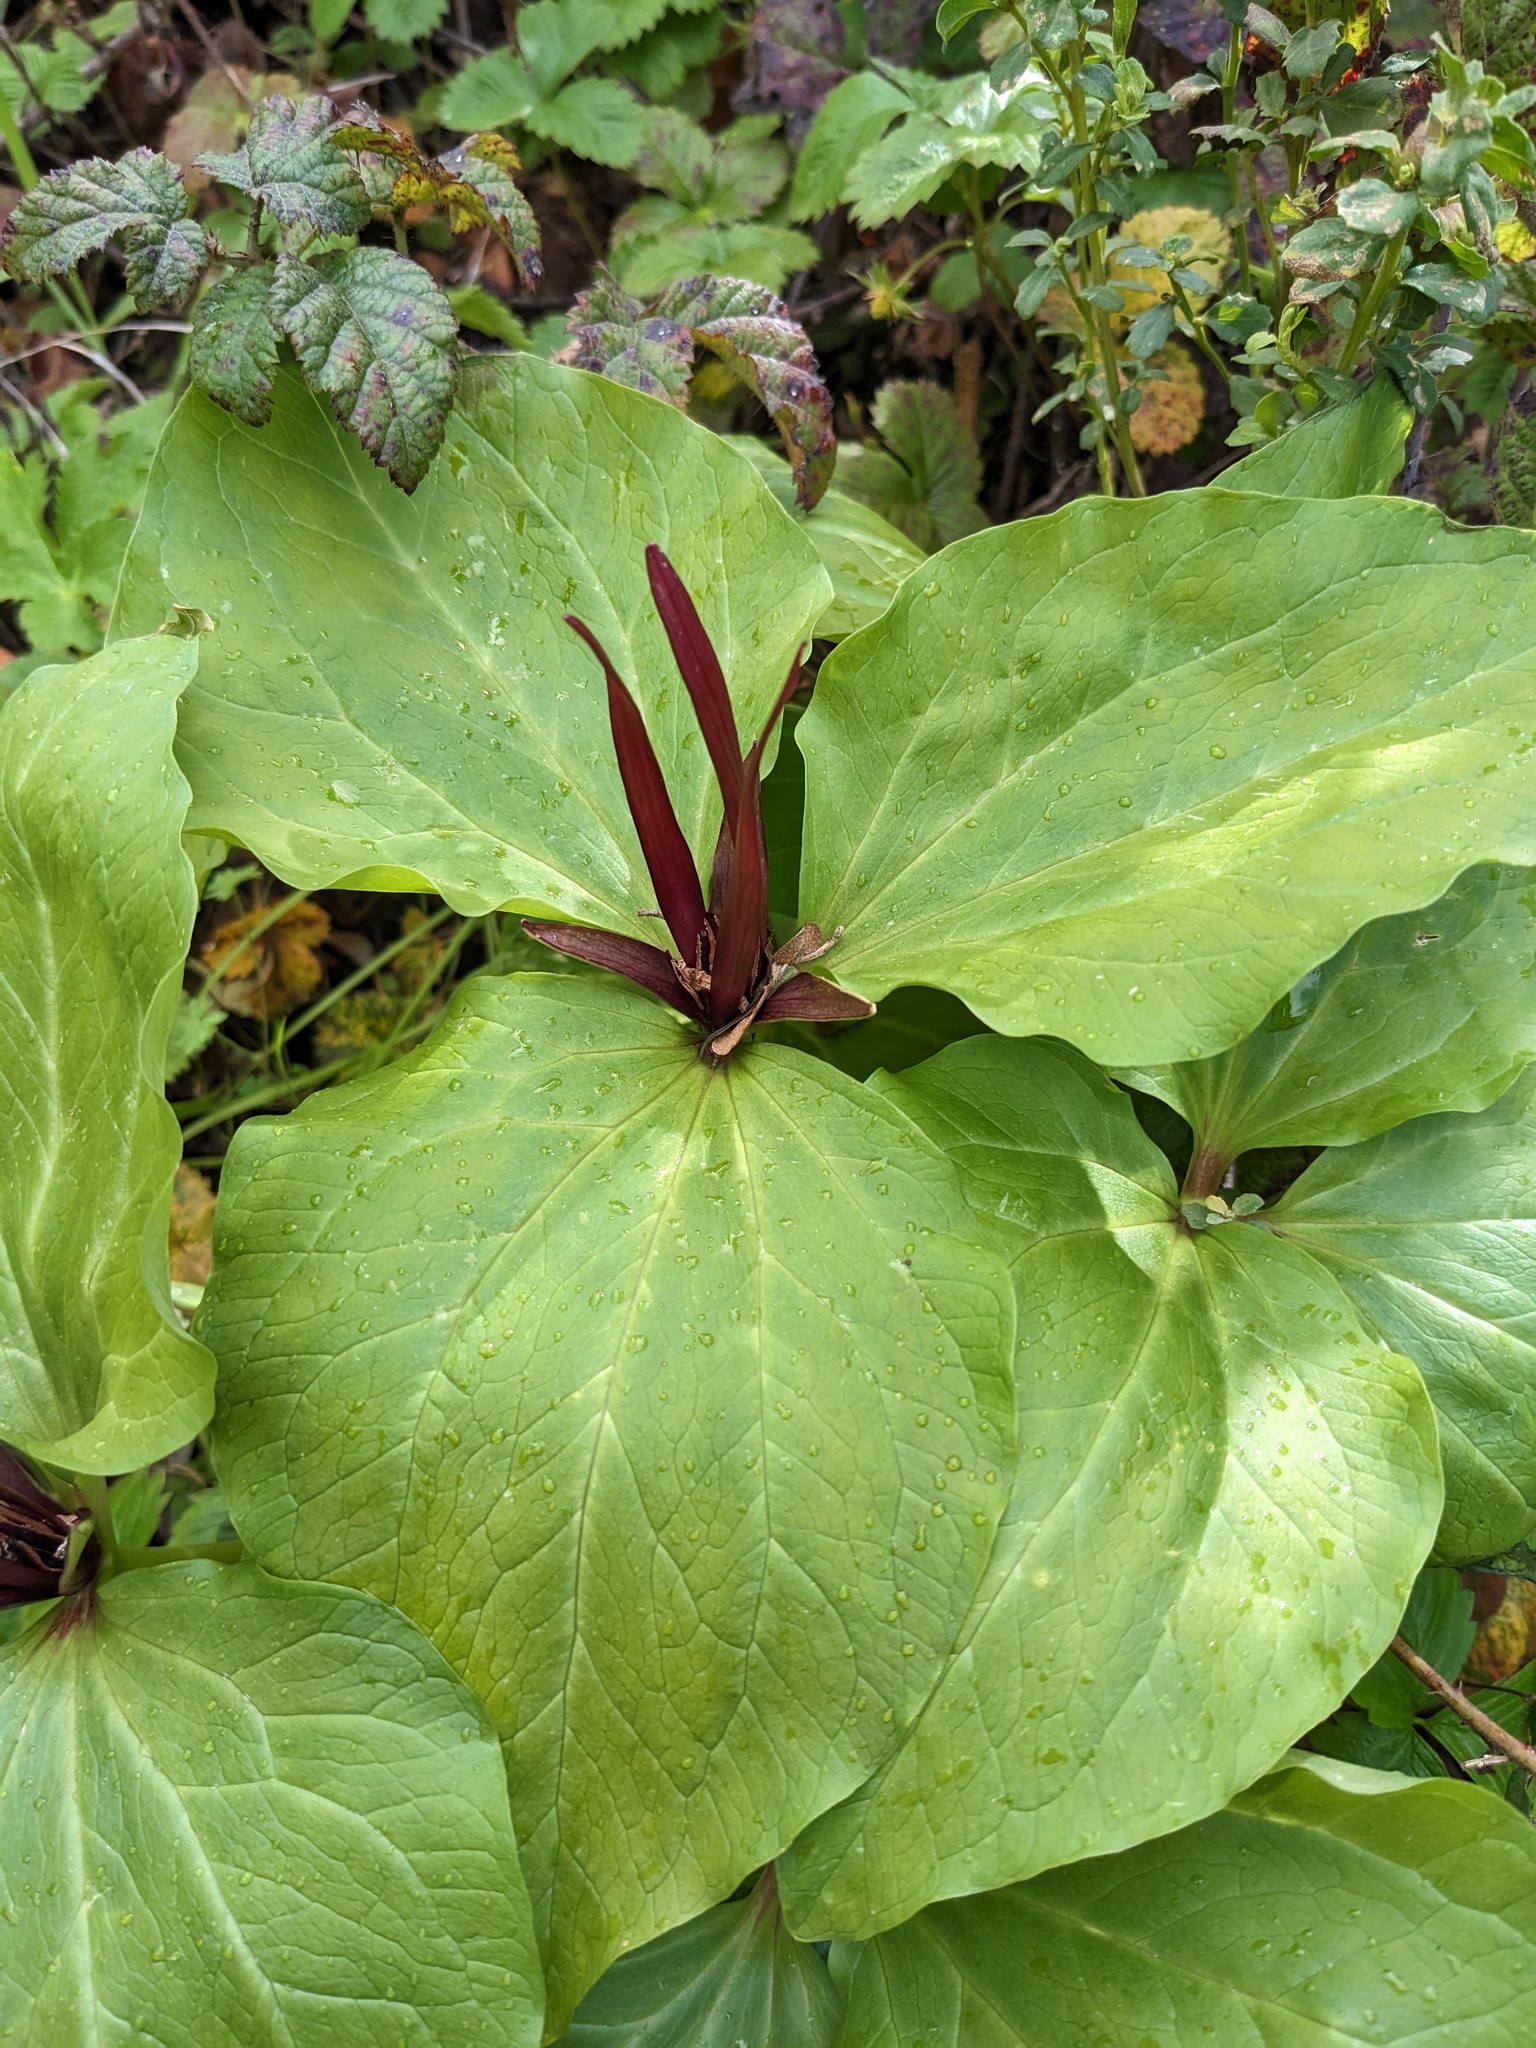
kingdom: Plantae
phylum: Tracheophyta
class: Liliopsida
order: Liliales
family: Melanthiaceae
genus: Trillium
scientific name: Trillium angustipetalum
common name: Narrow-petaled trillium
